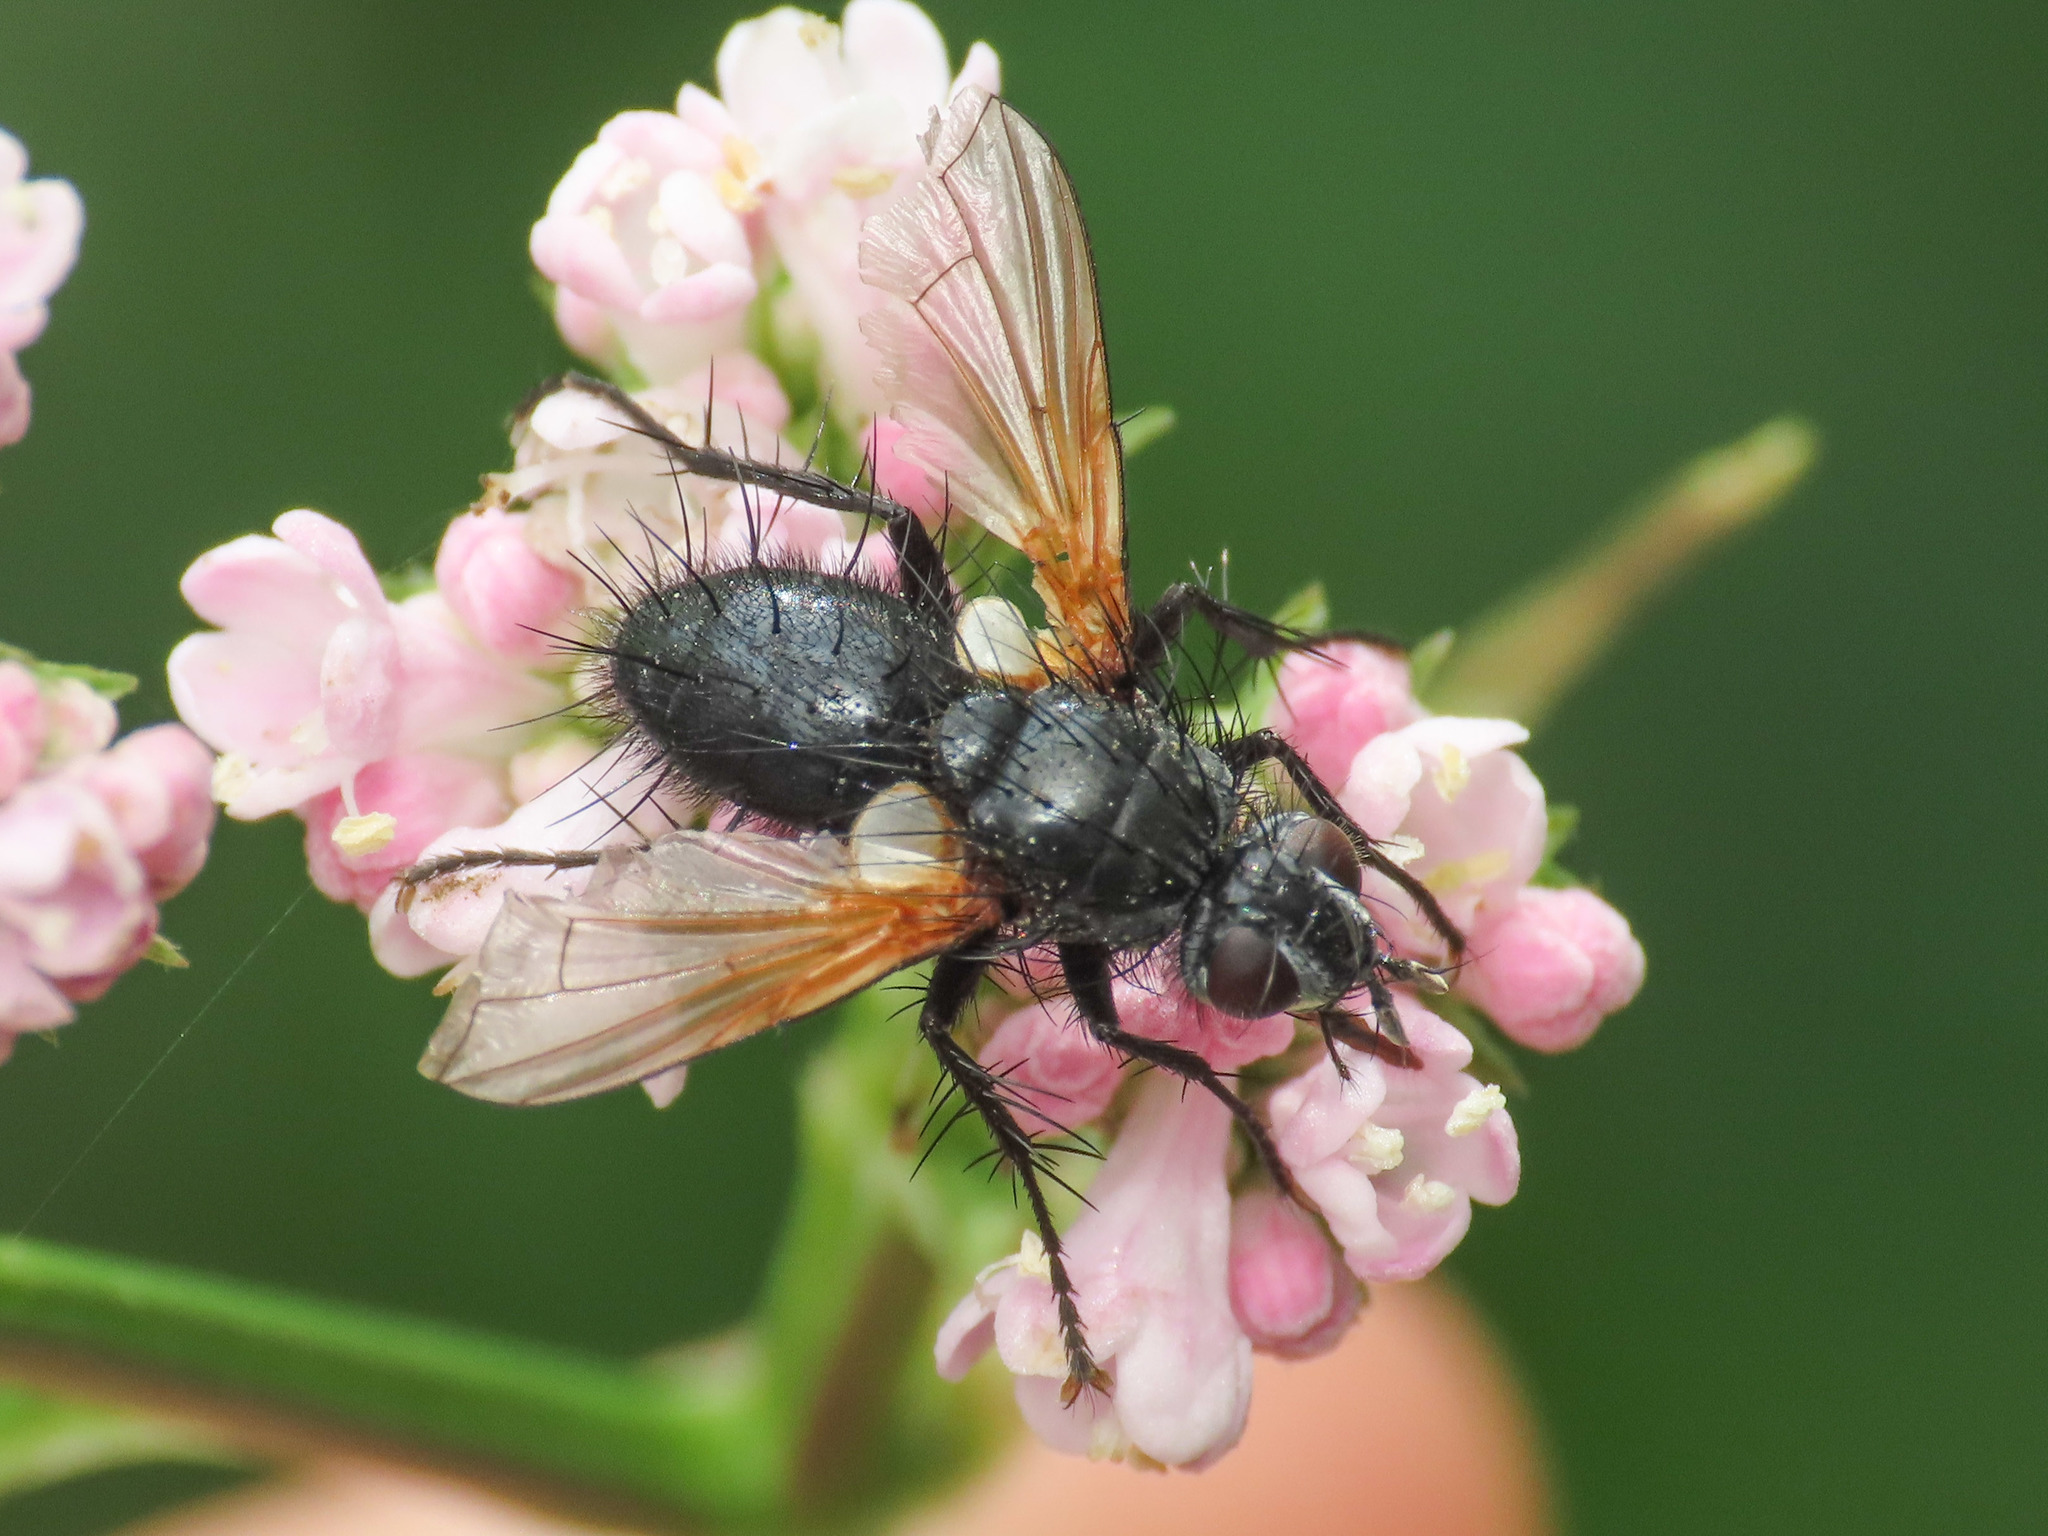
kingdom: Animalia
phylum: Arthropoda
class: Insecta
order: Diptera
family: Tachinidae
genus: Zophomyia
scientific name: Zophomyia temula
